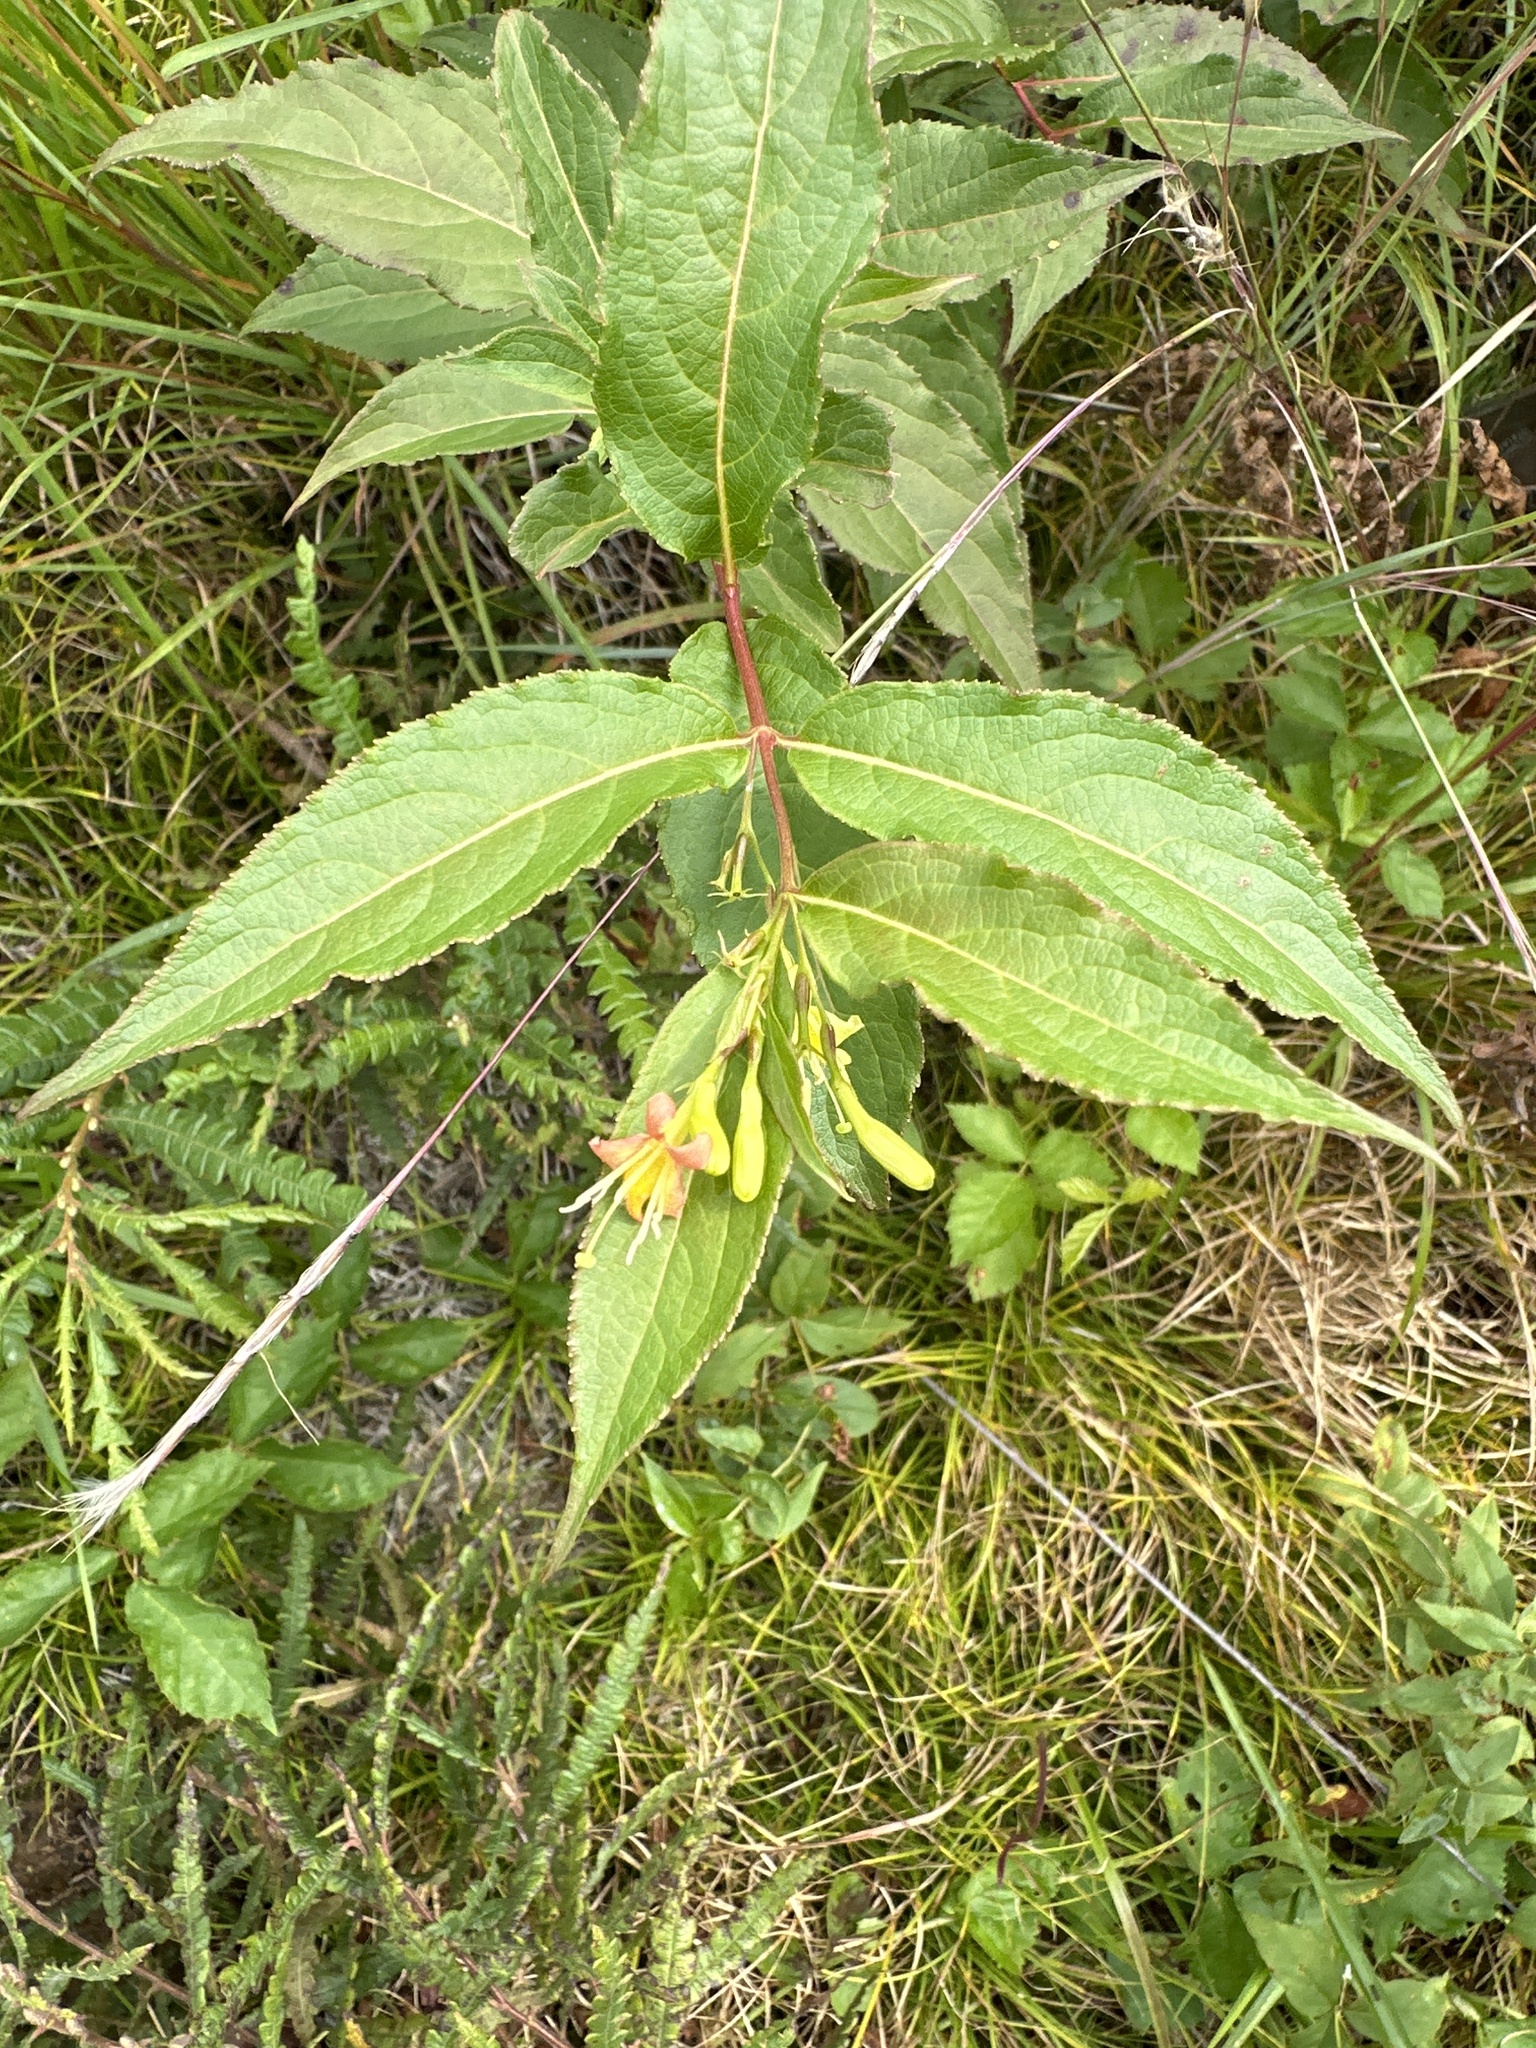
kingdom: Plantae
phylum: Tracheophyta
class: Magnoliopsida
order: Dipsacales
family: Caprifoliaceae
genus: Diervilla
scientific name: Diervilla lonicera
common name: Bush-honeysuckle
